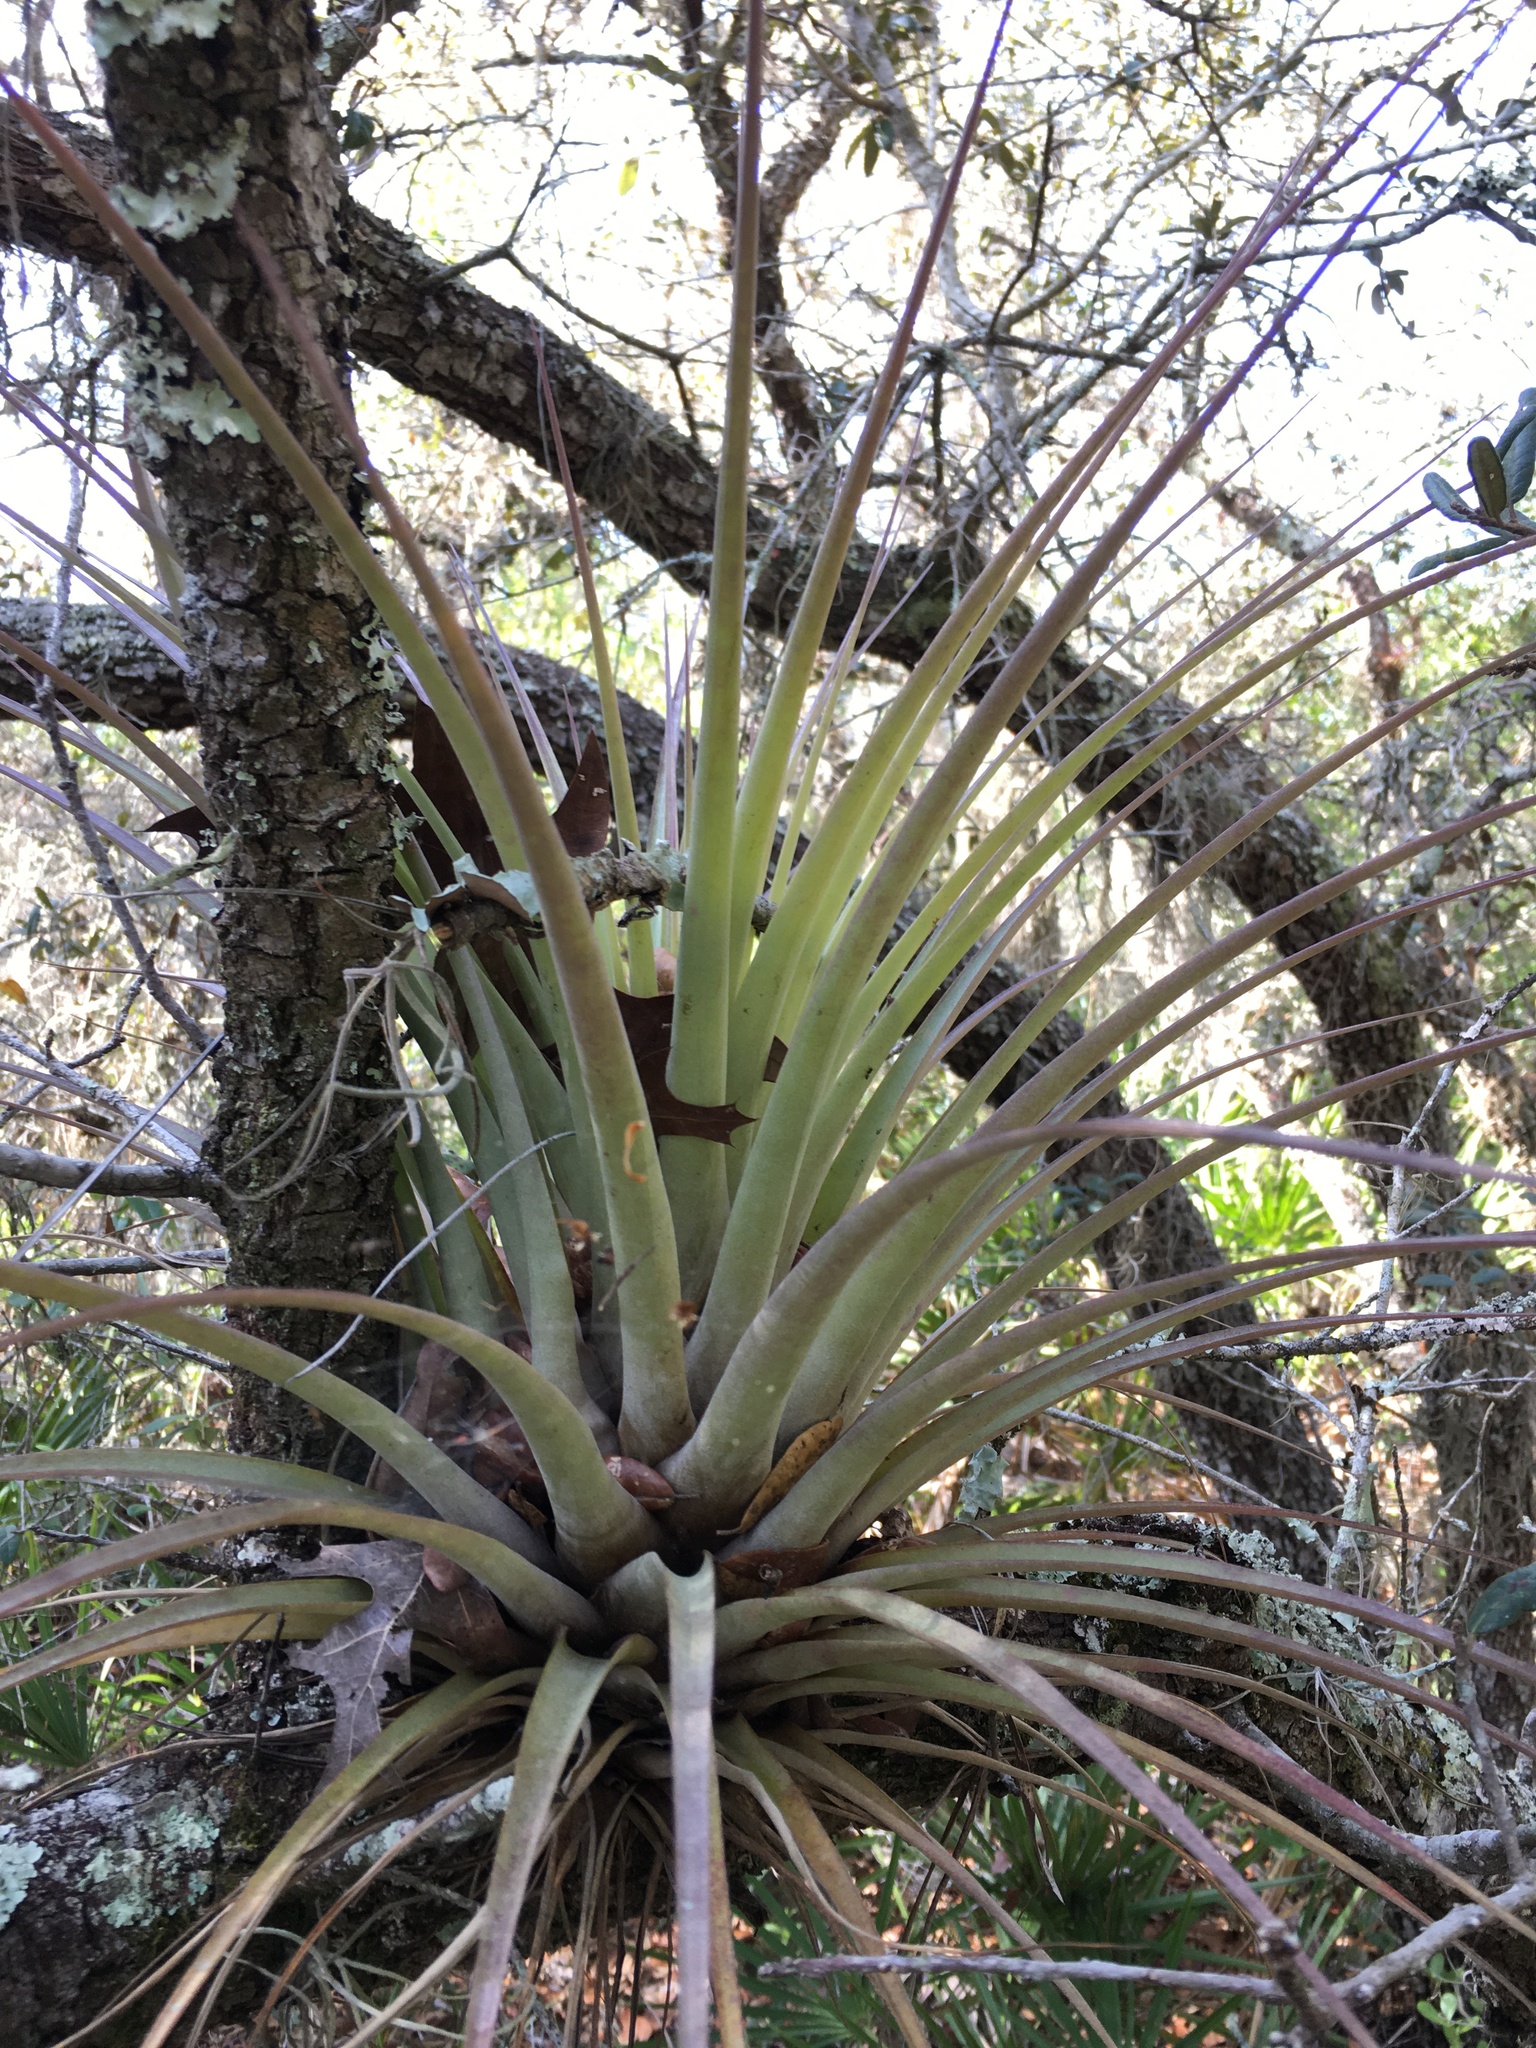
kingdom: Plantae
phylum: Tracheophyta
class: Liliopsida
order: Poales
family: Bromeliaceae
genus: Tillandsia
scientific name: Tillandsia fasciculata
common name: Giant airplant
